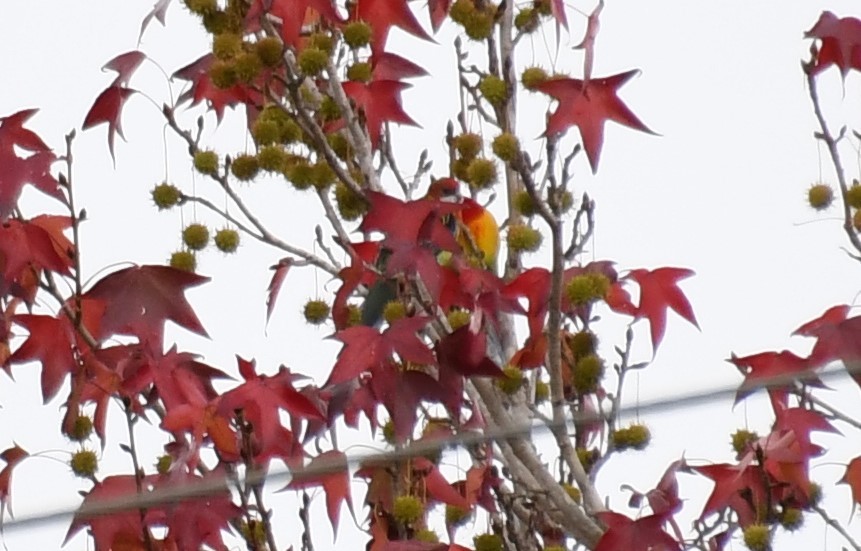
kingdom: Animalia
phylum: Chordata
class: Aves
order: Psittaciformes
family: Psittacidae
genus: Platycercus
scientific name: Platycercus eximius
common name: Eastern rosella
